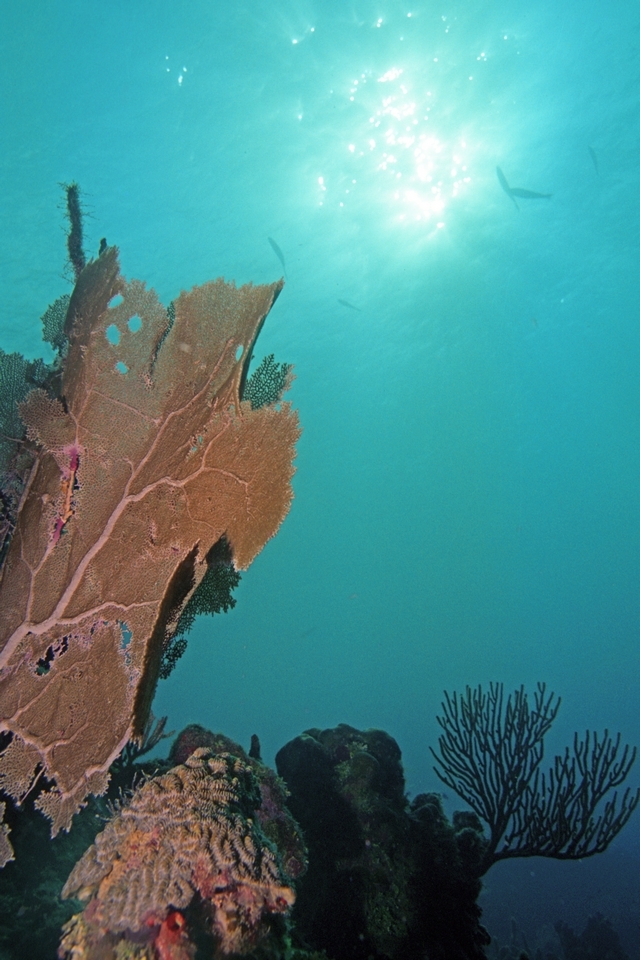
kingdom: Animalia
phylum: Cnidaria
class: Anthozoa
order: Malacalcyonacea
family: Gorgoniidae
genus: Gorgonia
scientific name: Gorgonia ventalina
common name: Common sea fan
